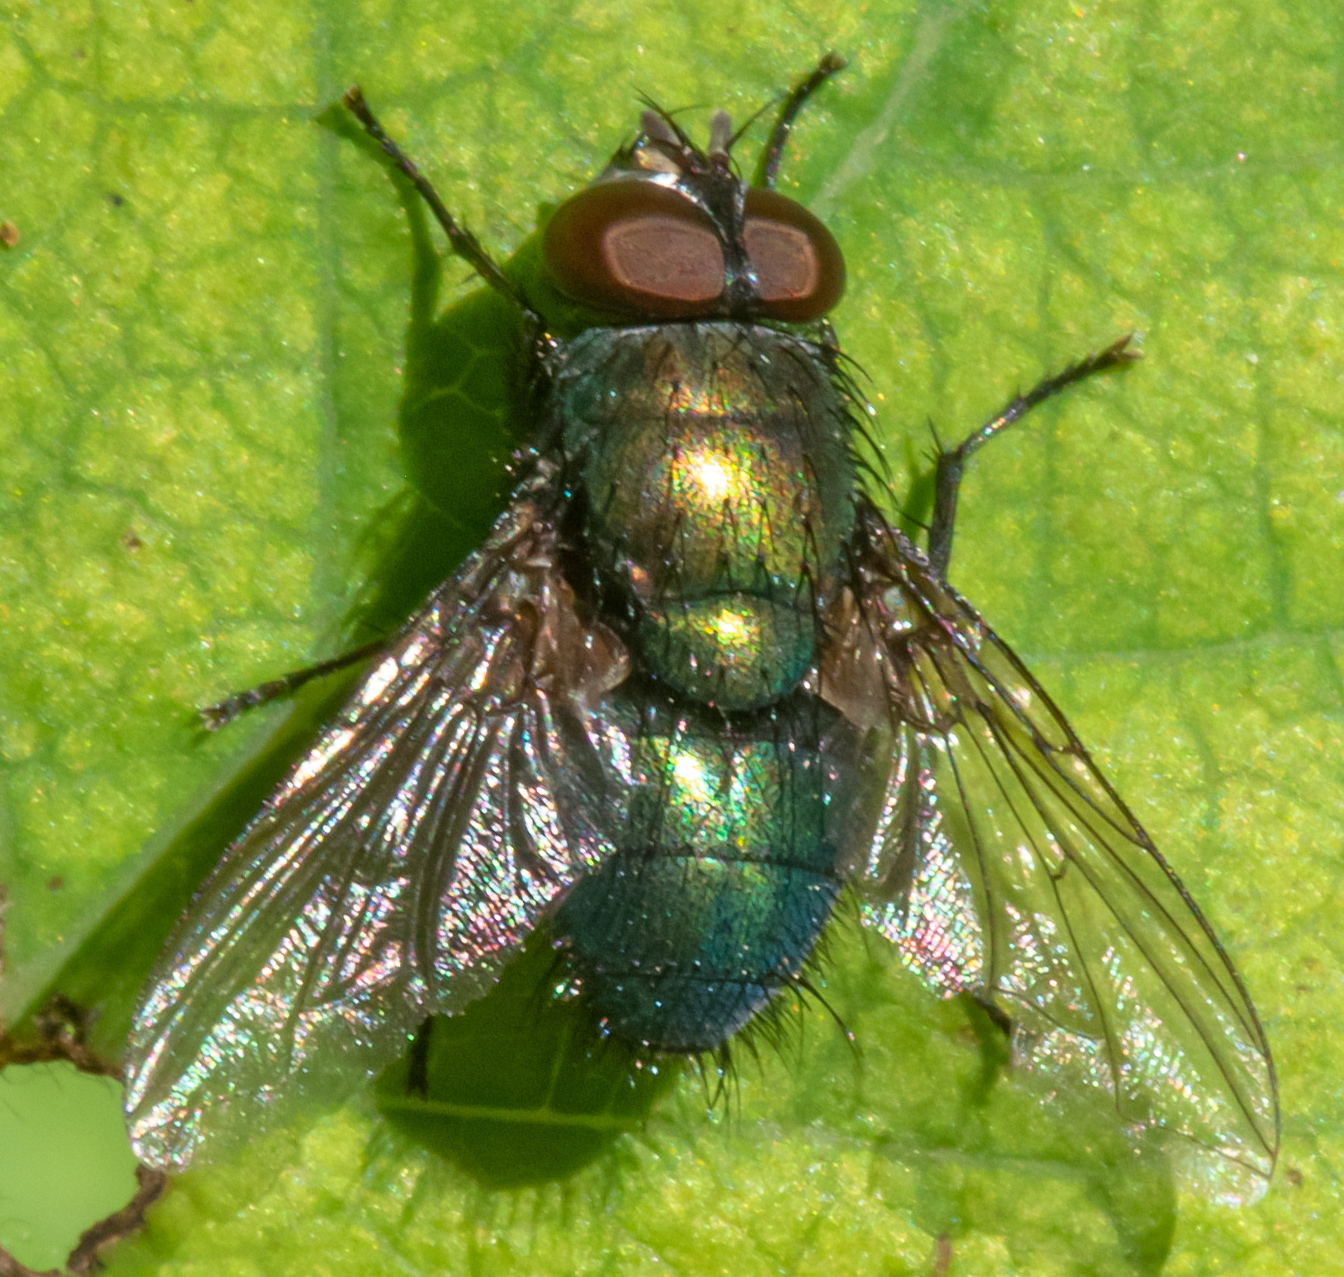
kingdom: Animalia
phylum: Arthropoda
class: Insecta
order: Diptera
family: Calliphoridae
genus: Lucilia
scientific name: Lucilia silvarum
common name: Marsh greenbottle
